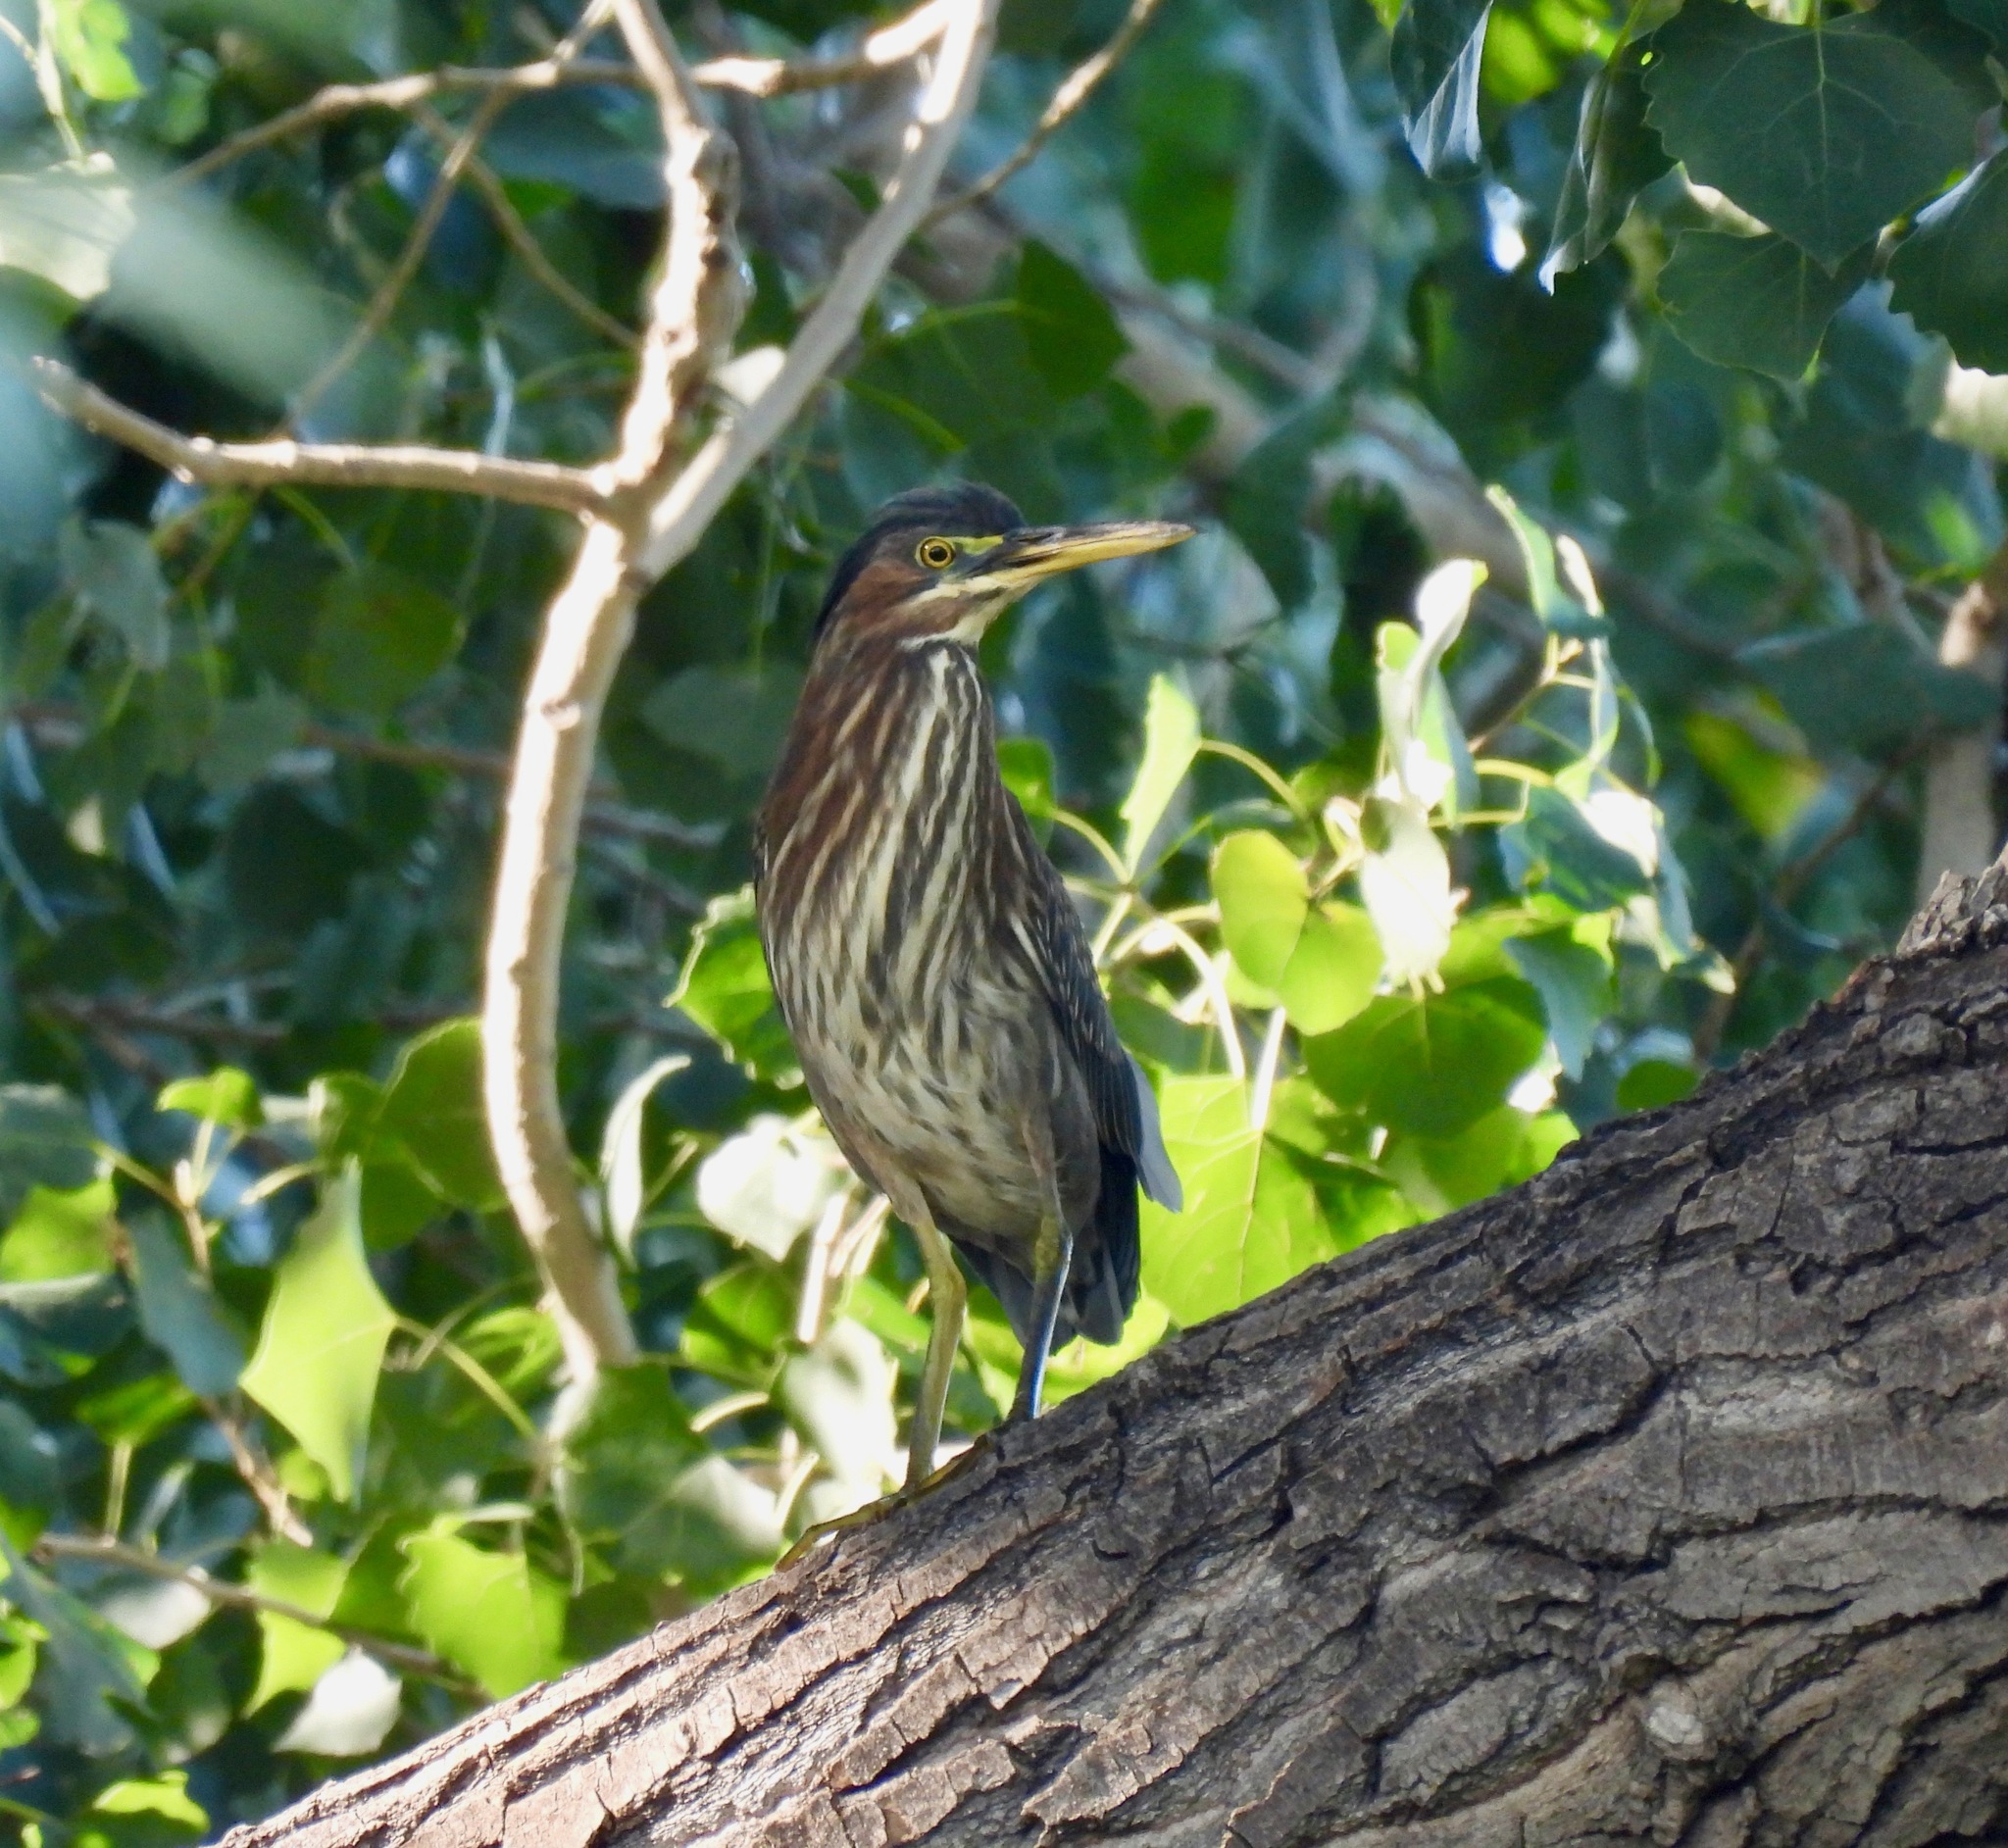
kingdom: Animalia
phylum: Chordata
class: Aves
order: Pelecaniformes
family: Ardeidae
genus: Butorides
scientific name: Butorides virescens
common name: Green heron
